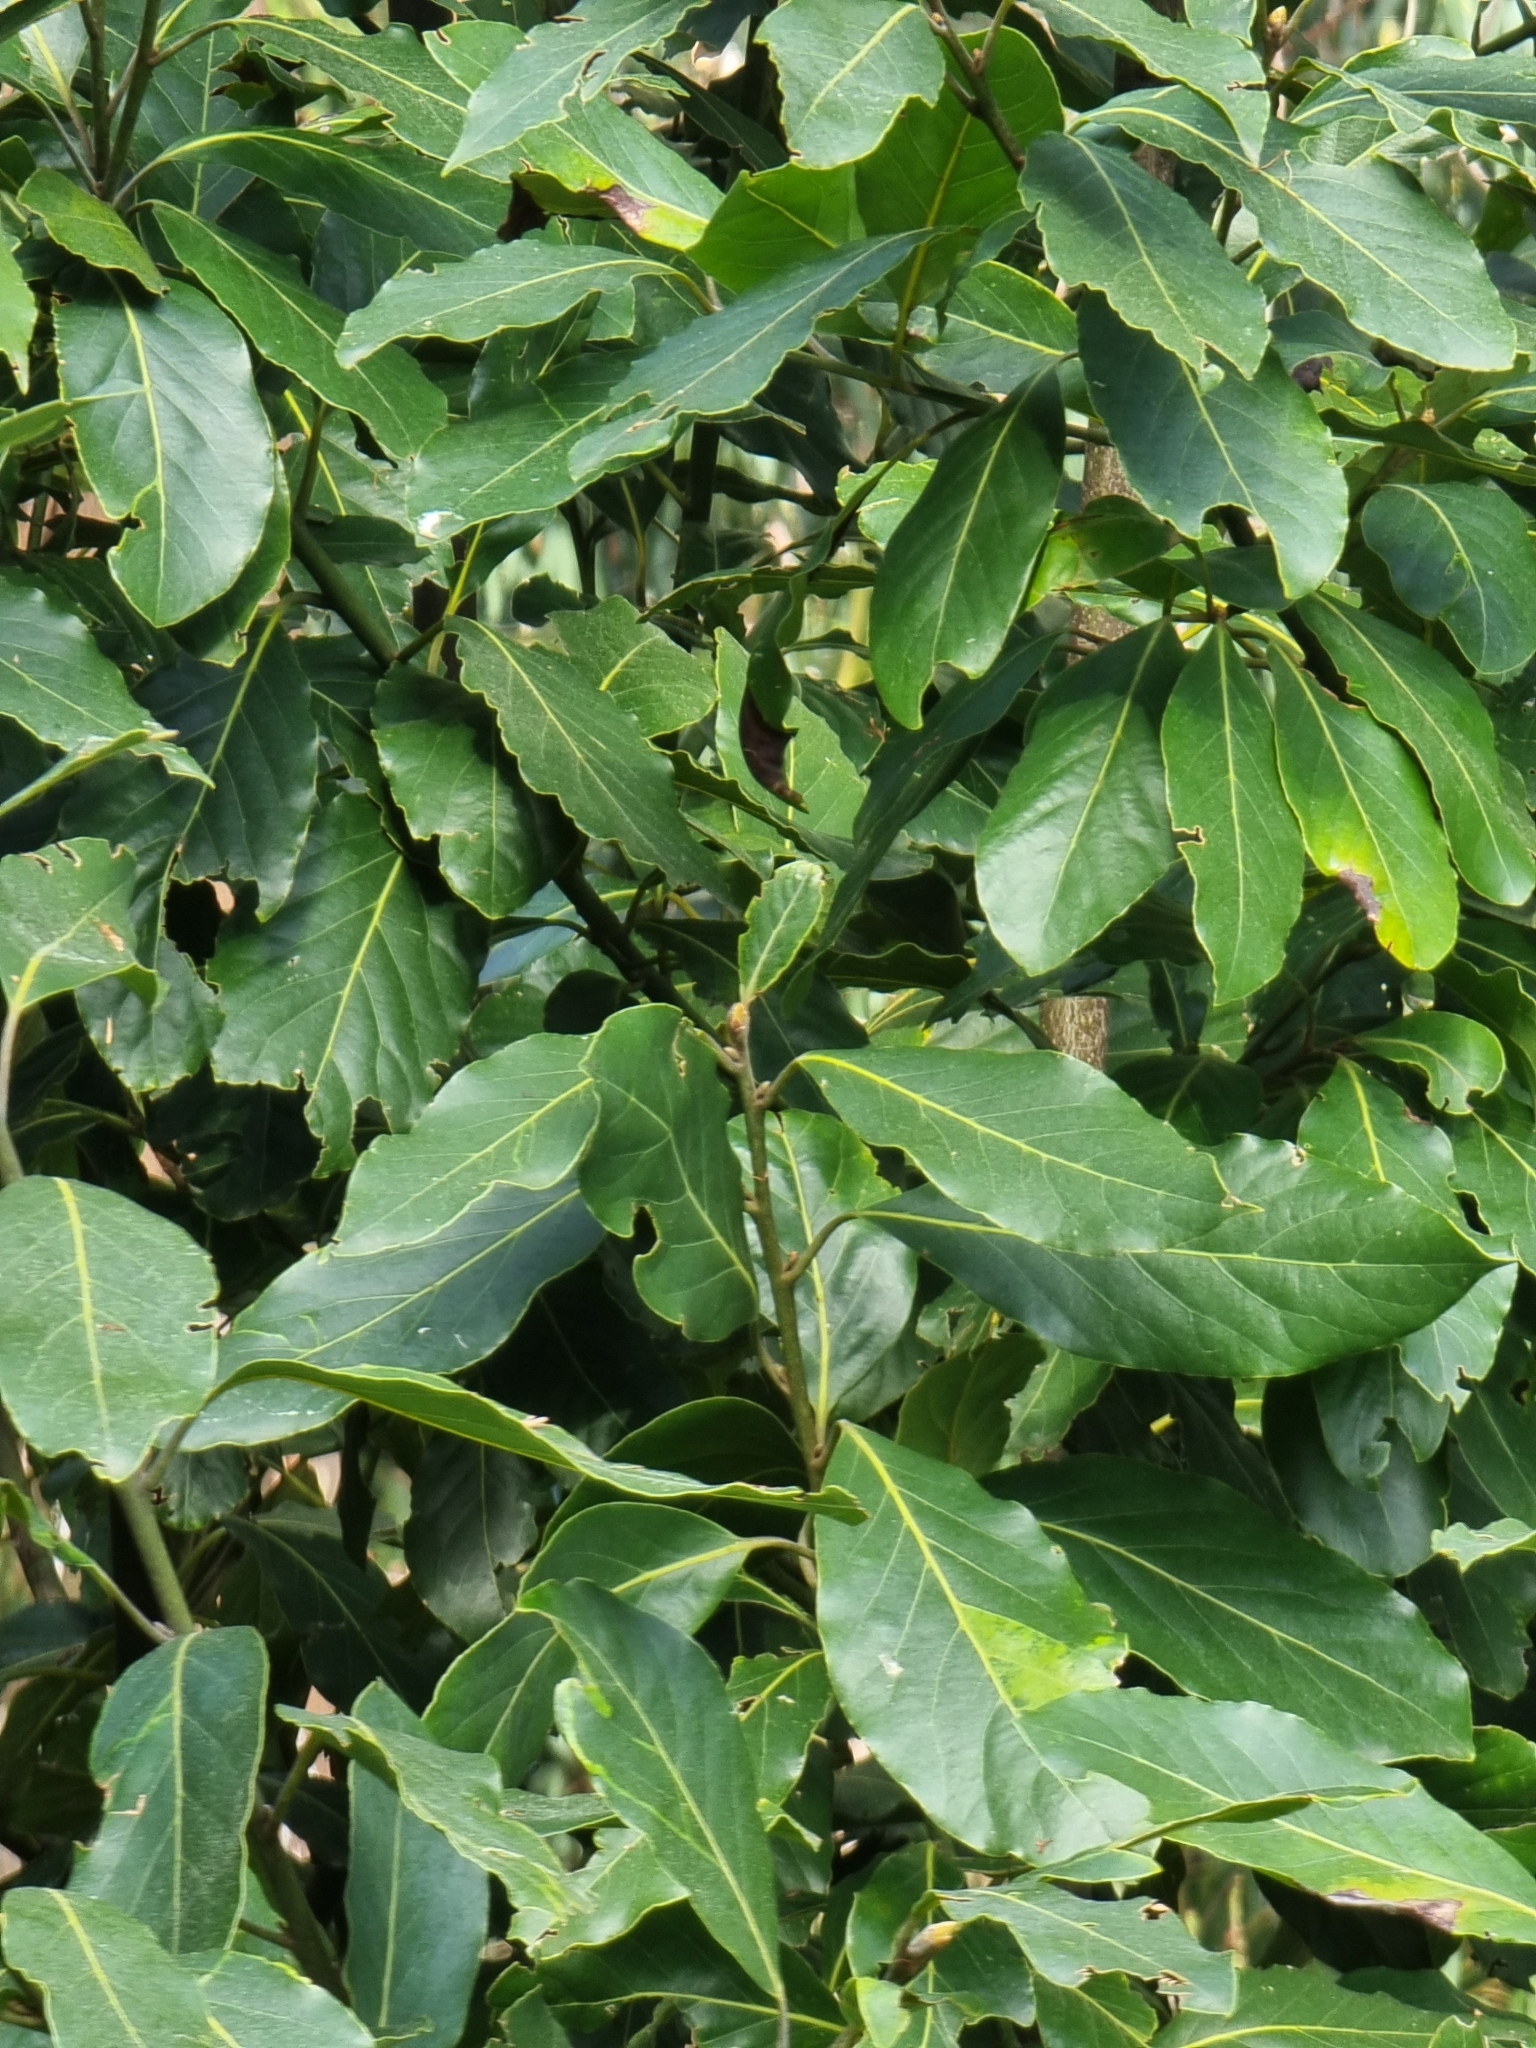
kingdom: Plantae
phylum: Tracheophyta
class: Magnoliopsida
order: Laurales
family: Lauraceae
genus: Laurus
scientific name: Laurus novocanariensis
